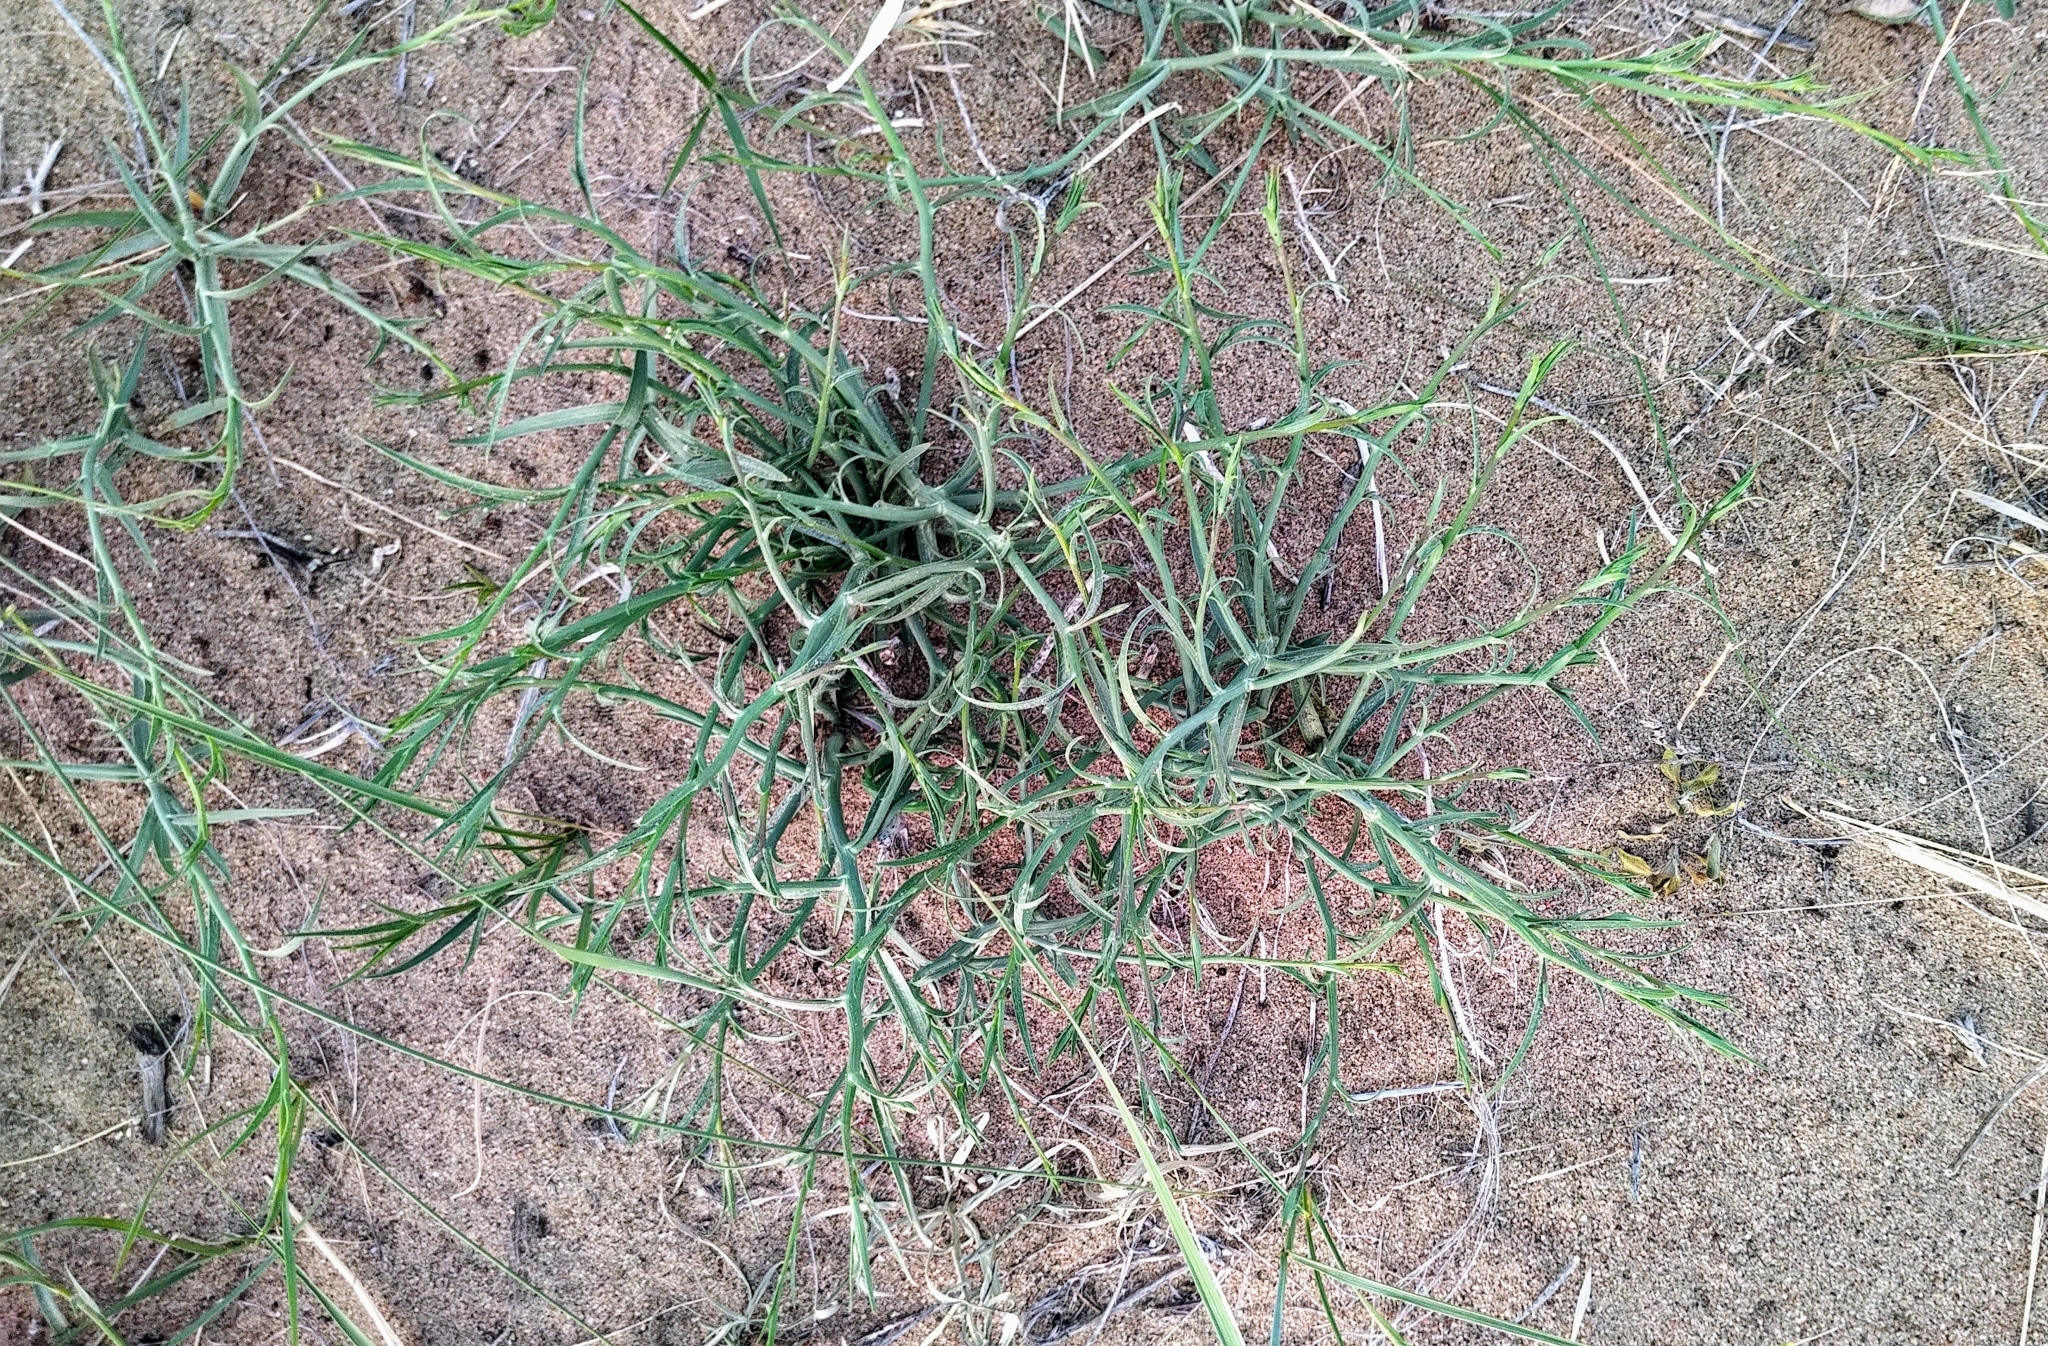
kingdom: Plantae
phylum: Tracheophyta
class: Magnoliopsida
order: Asterales
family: Asteraceae
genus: Lygodesmia
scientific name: Lygodesmia juncea
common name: Common skeletonweed
